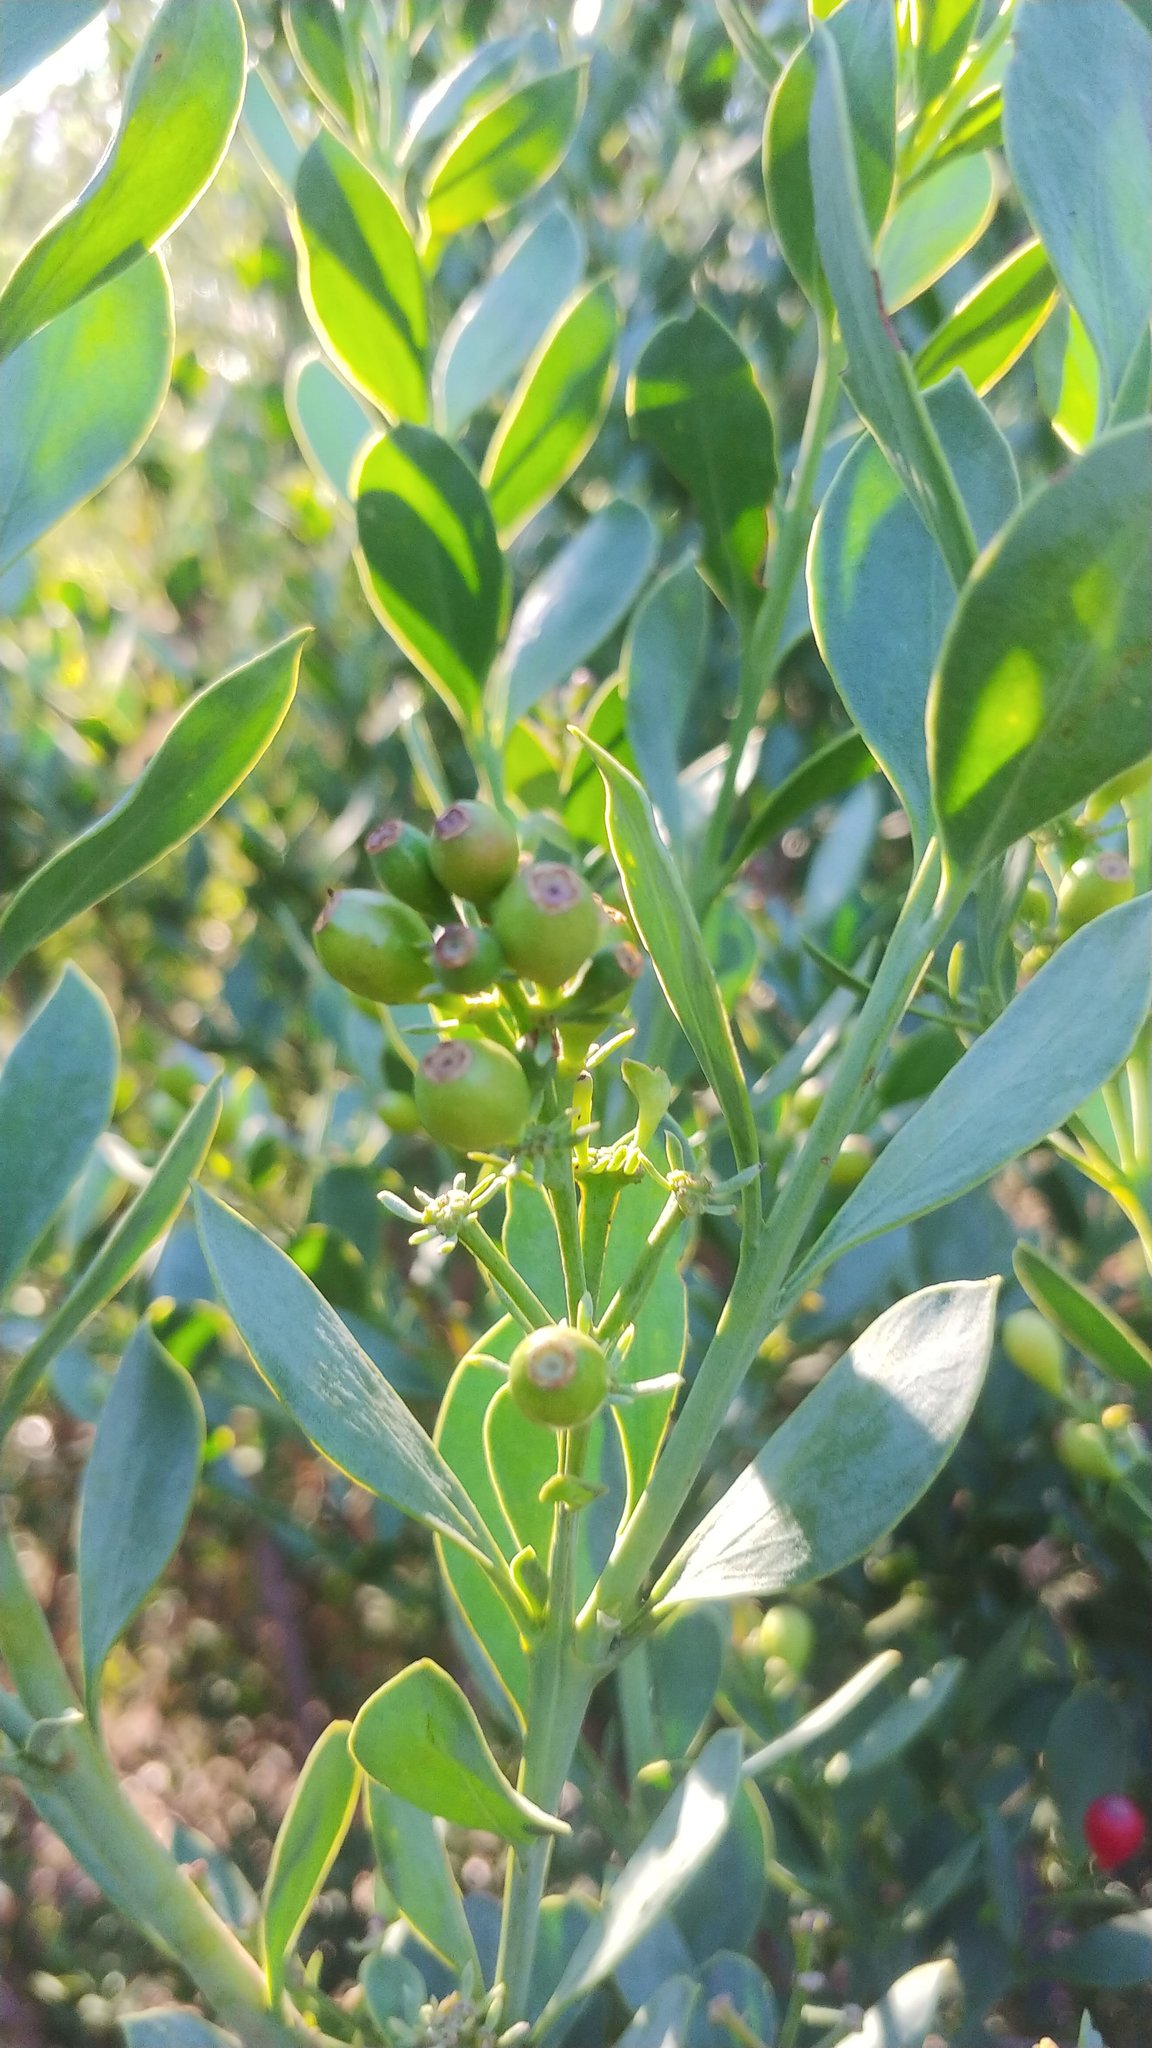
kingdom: Plantae
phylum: Tracheophyta
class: Magnoliopsida
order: Santalales
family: Santalaceae
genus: Osyris
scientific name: Osyris compressa
